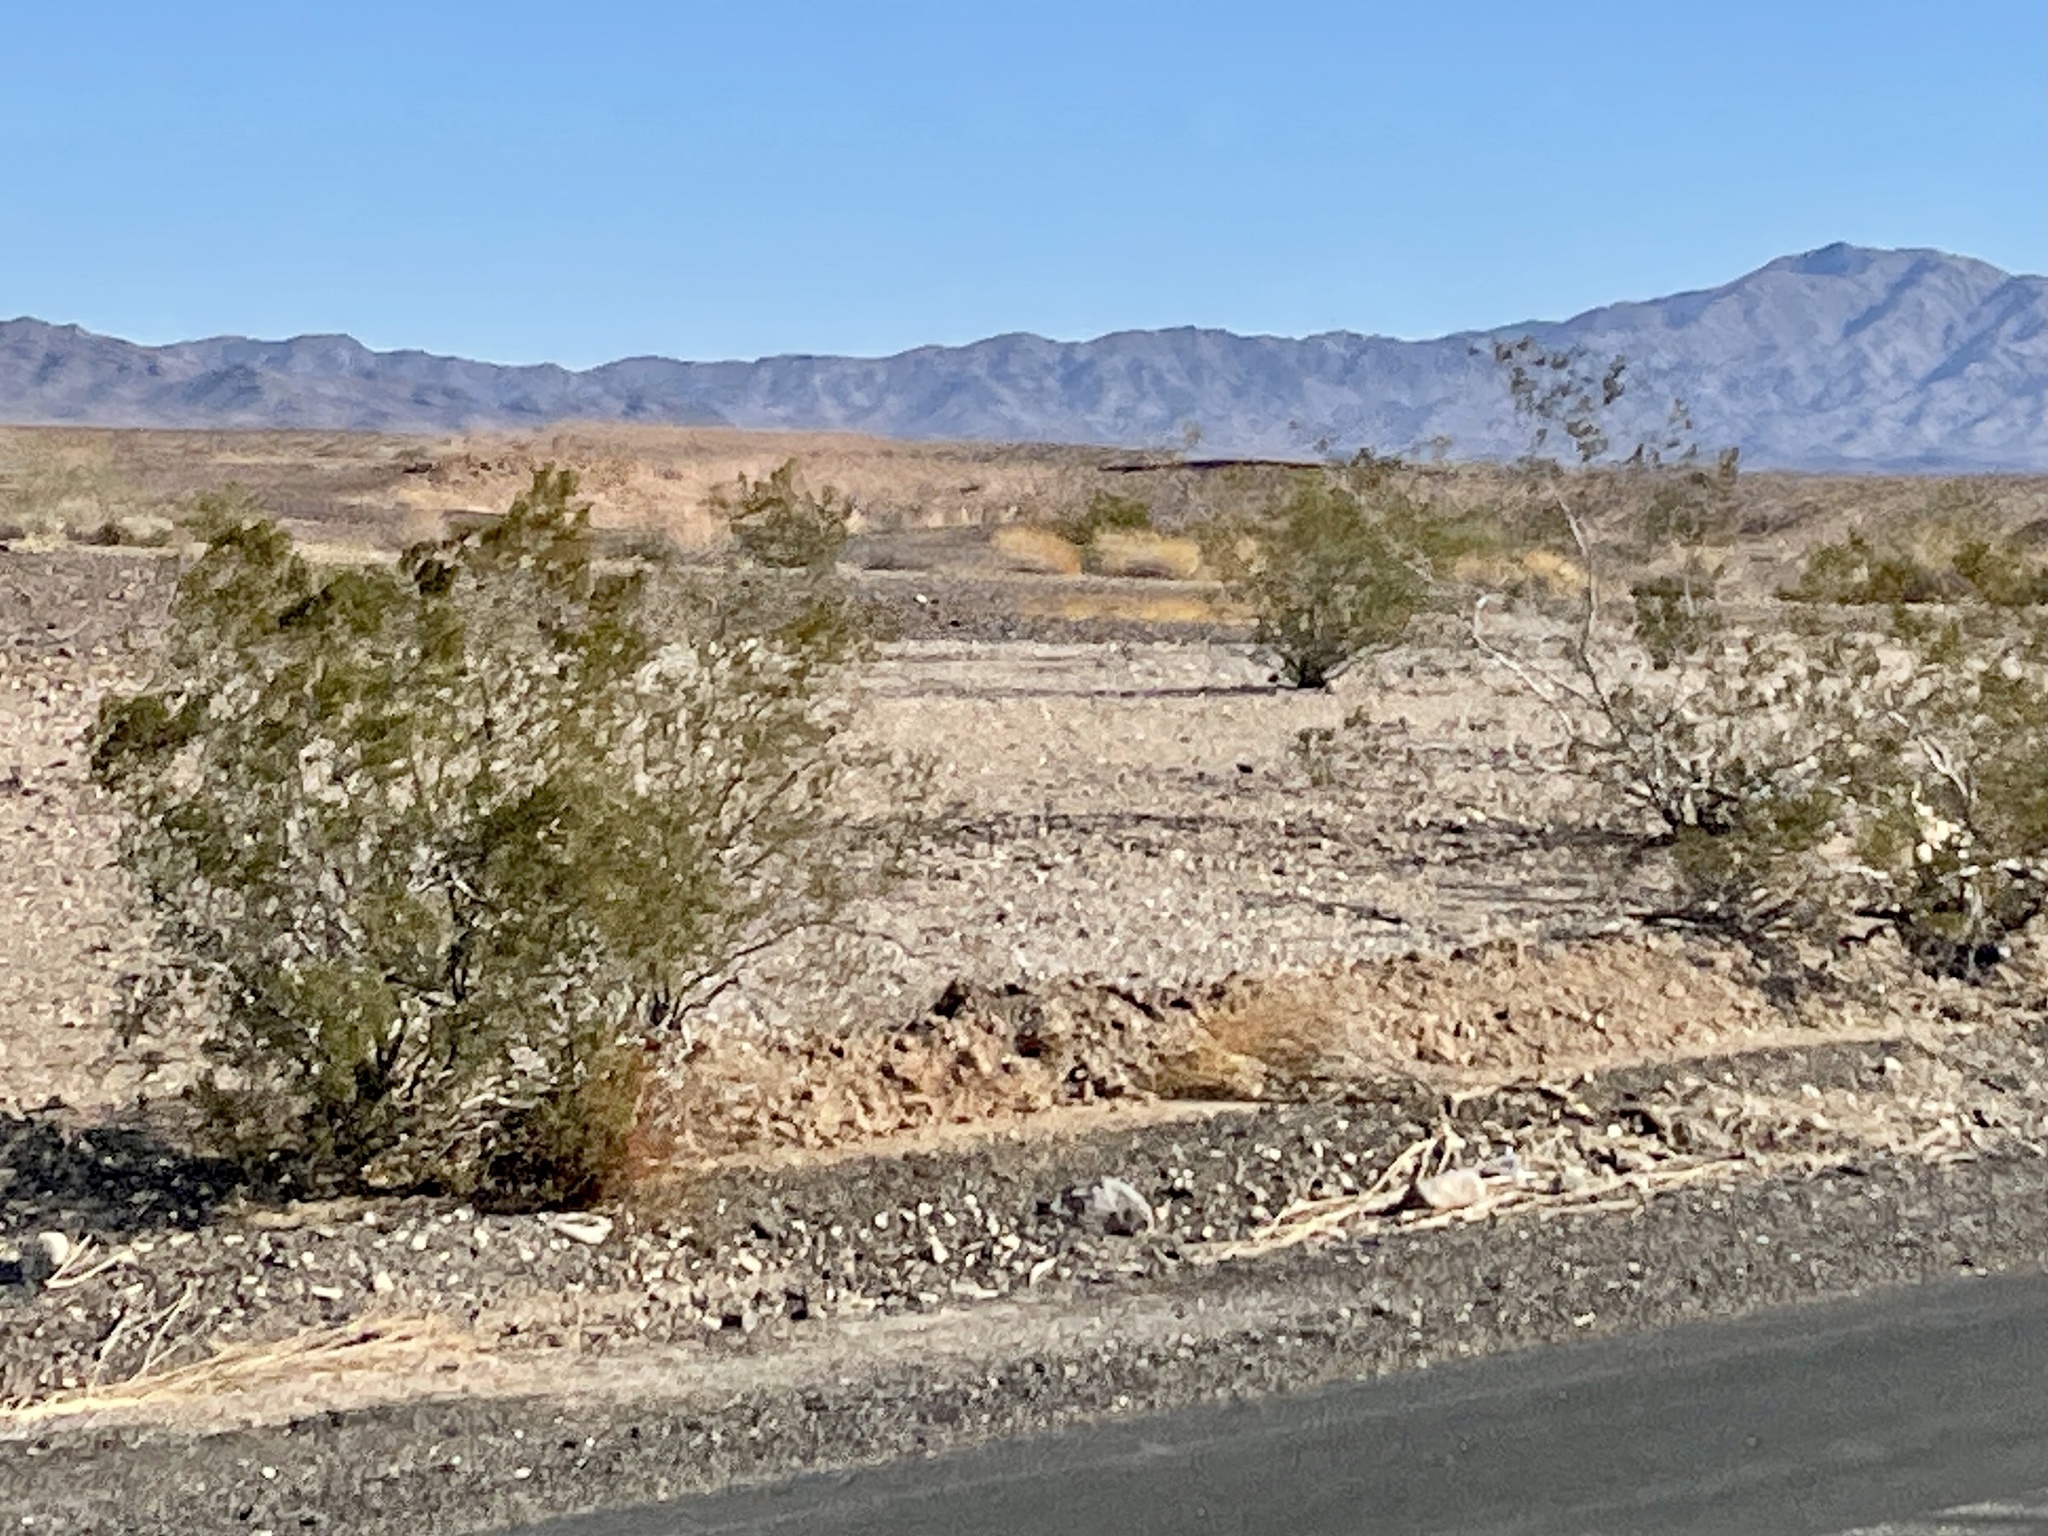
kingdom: Plantae
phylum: Tracheophyta
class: Magnoliopsida
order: Zygophyllales
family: Zygophyllaceae
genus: Larrea
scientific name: Larrea tridentata
